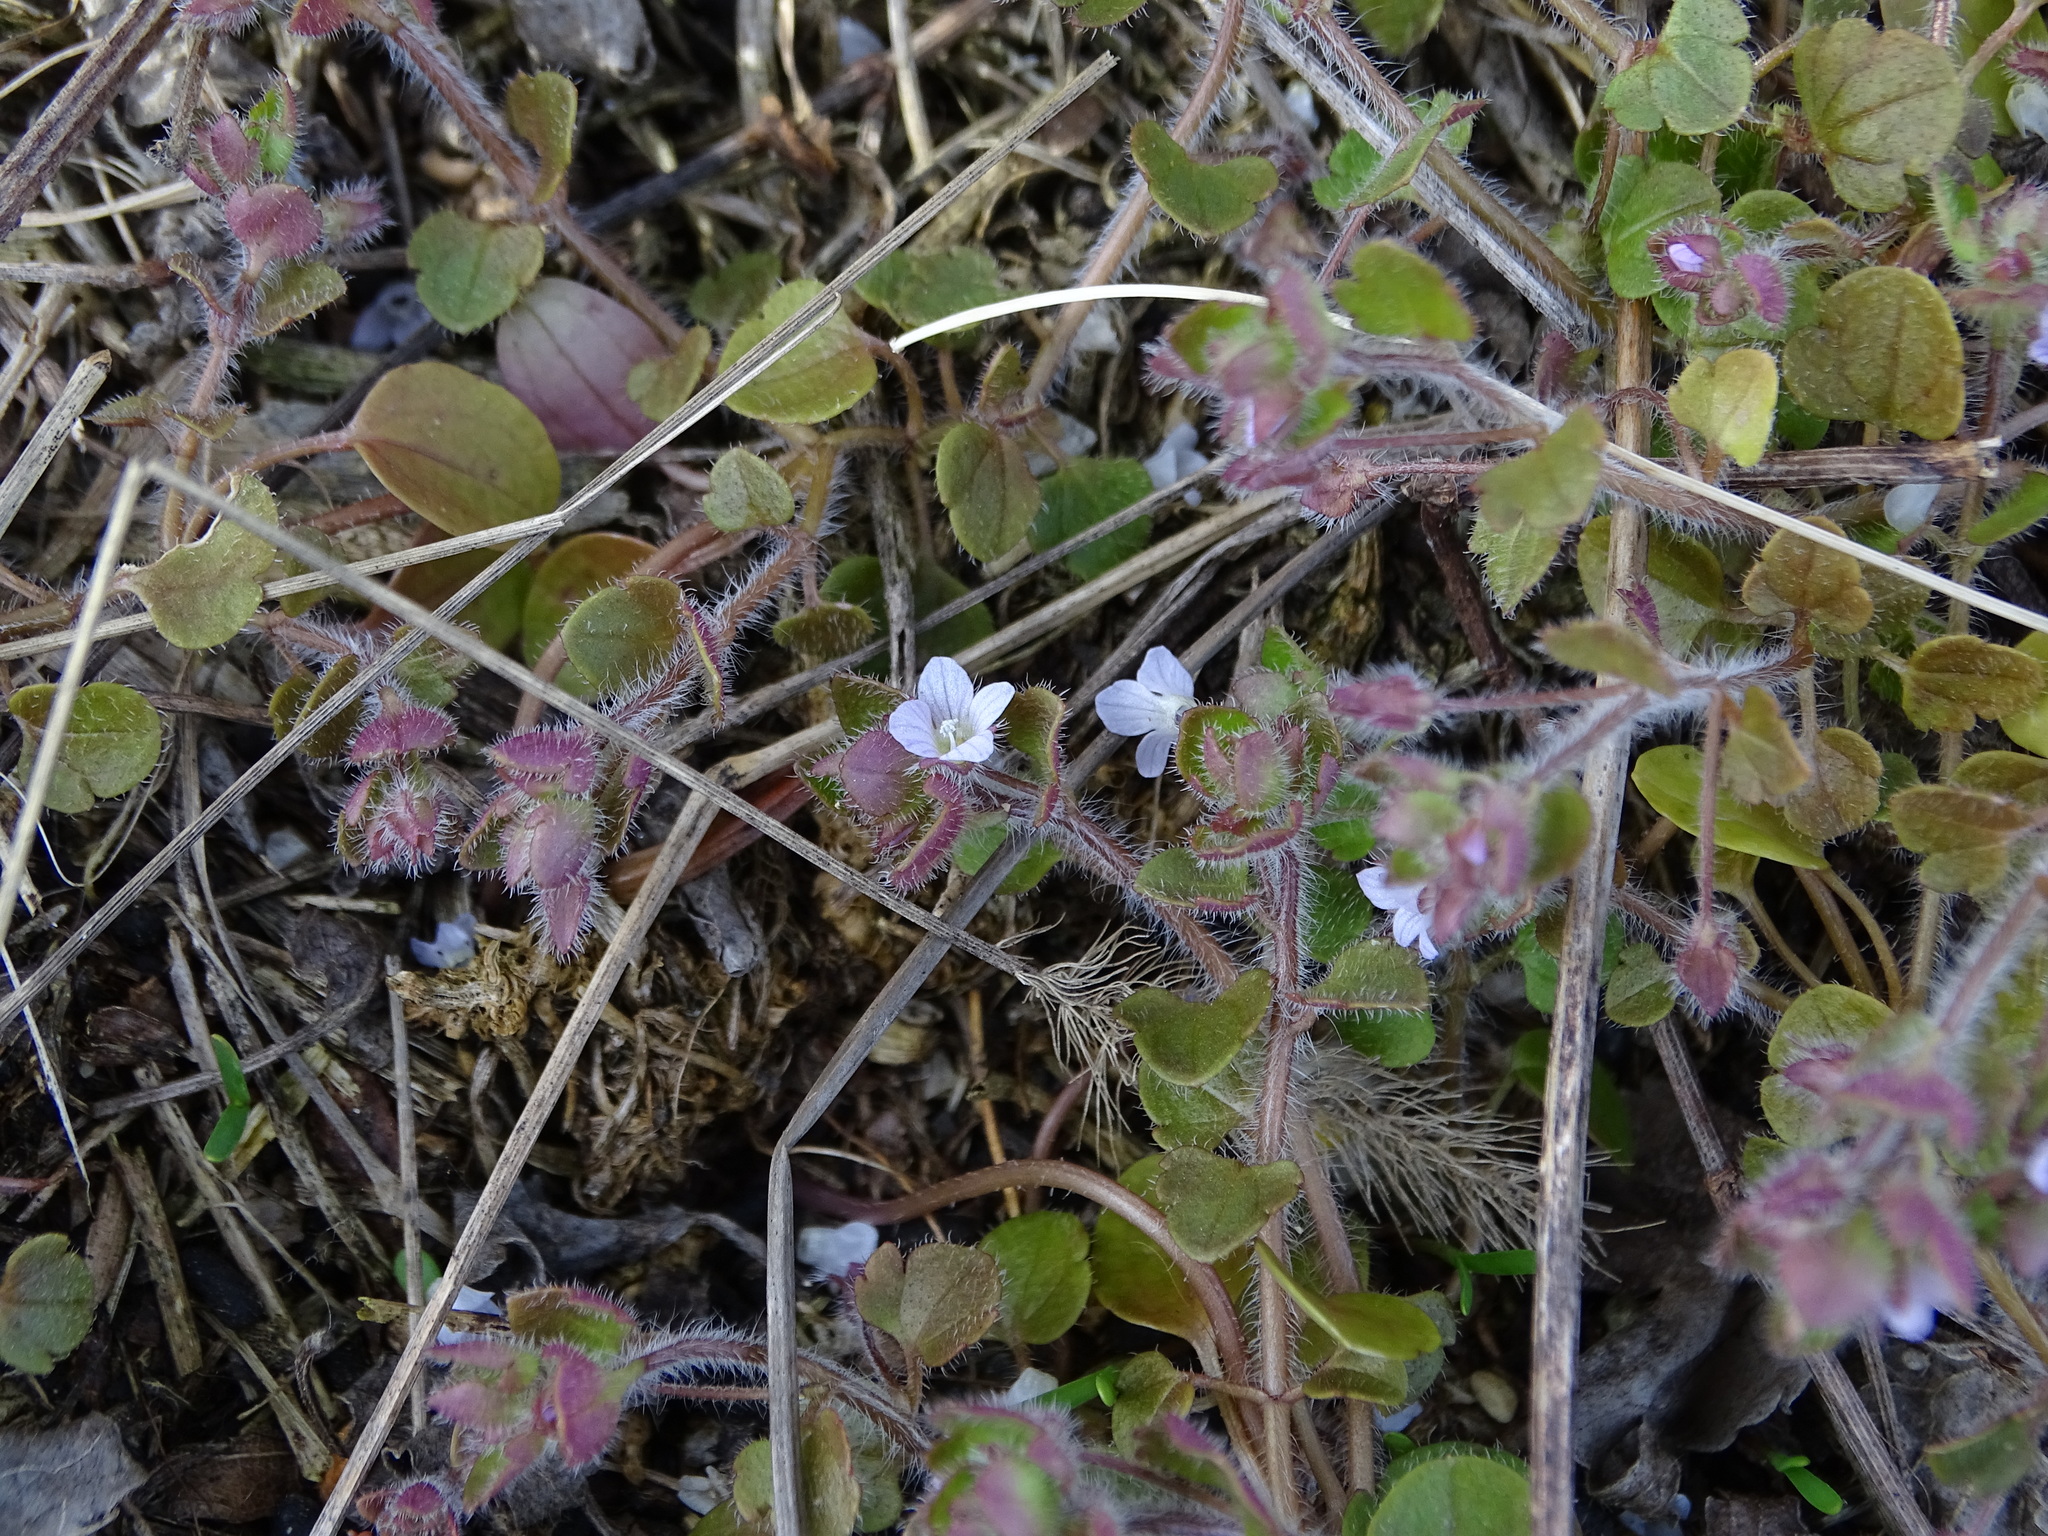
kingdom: Plantae
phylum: Tracheophyta
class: Magnoliopsida
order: Lamiales
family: Plantaginaceae
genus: Veronica
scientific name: Veronica sublobata
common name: False ivy-leaved speedwell
